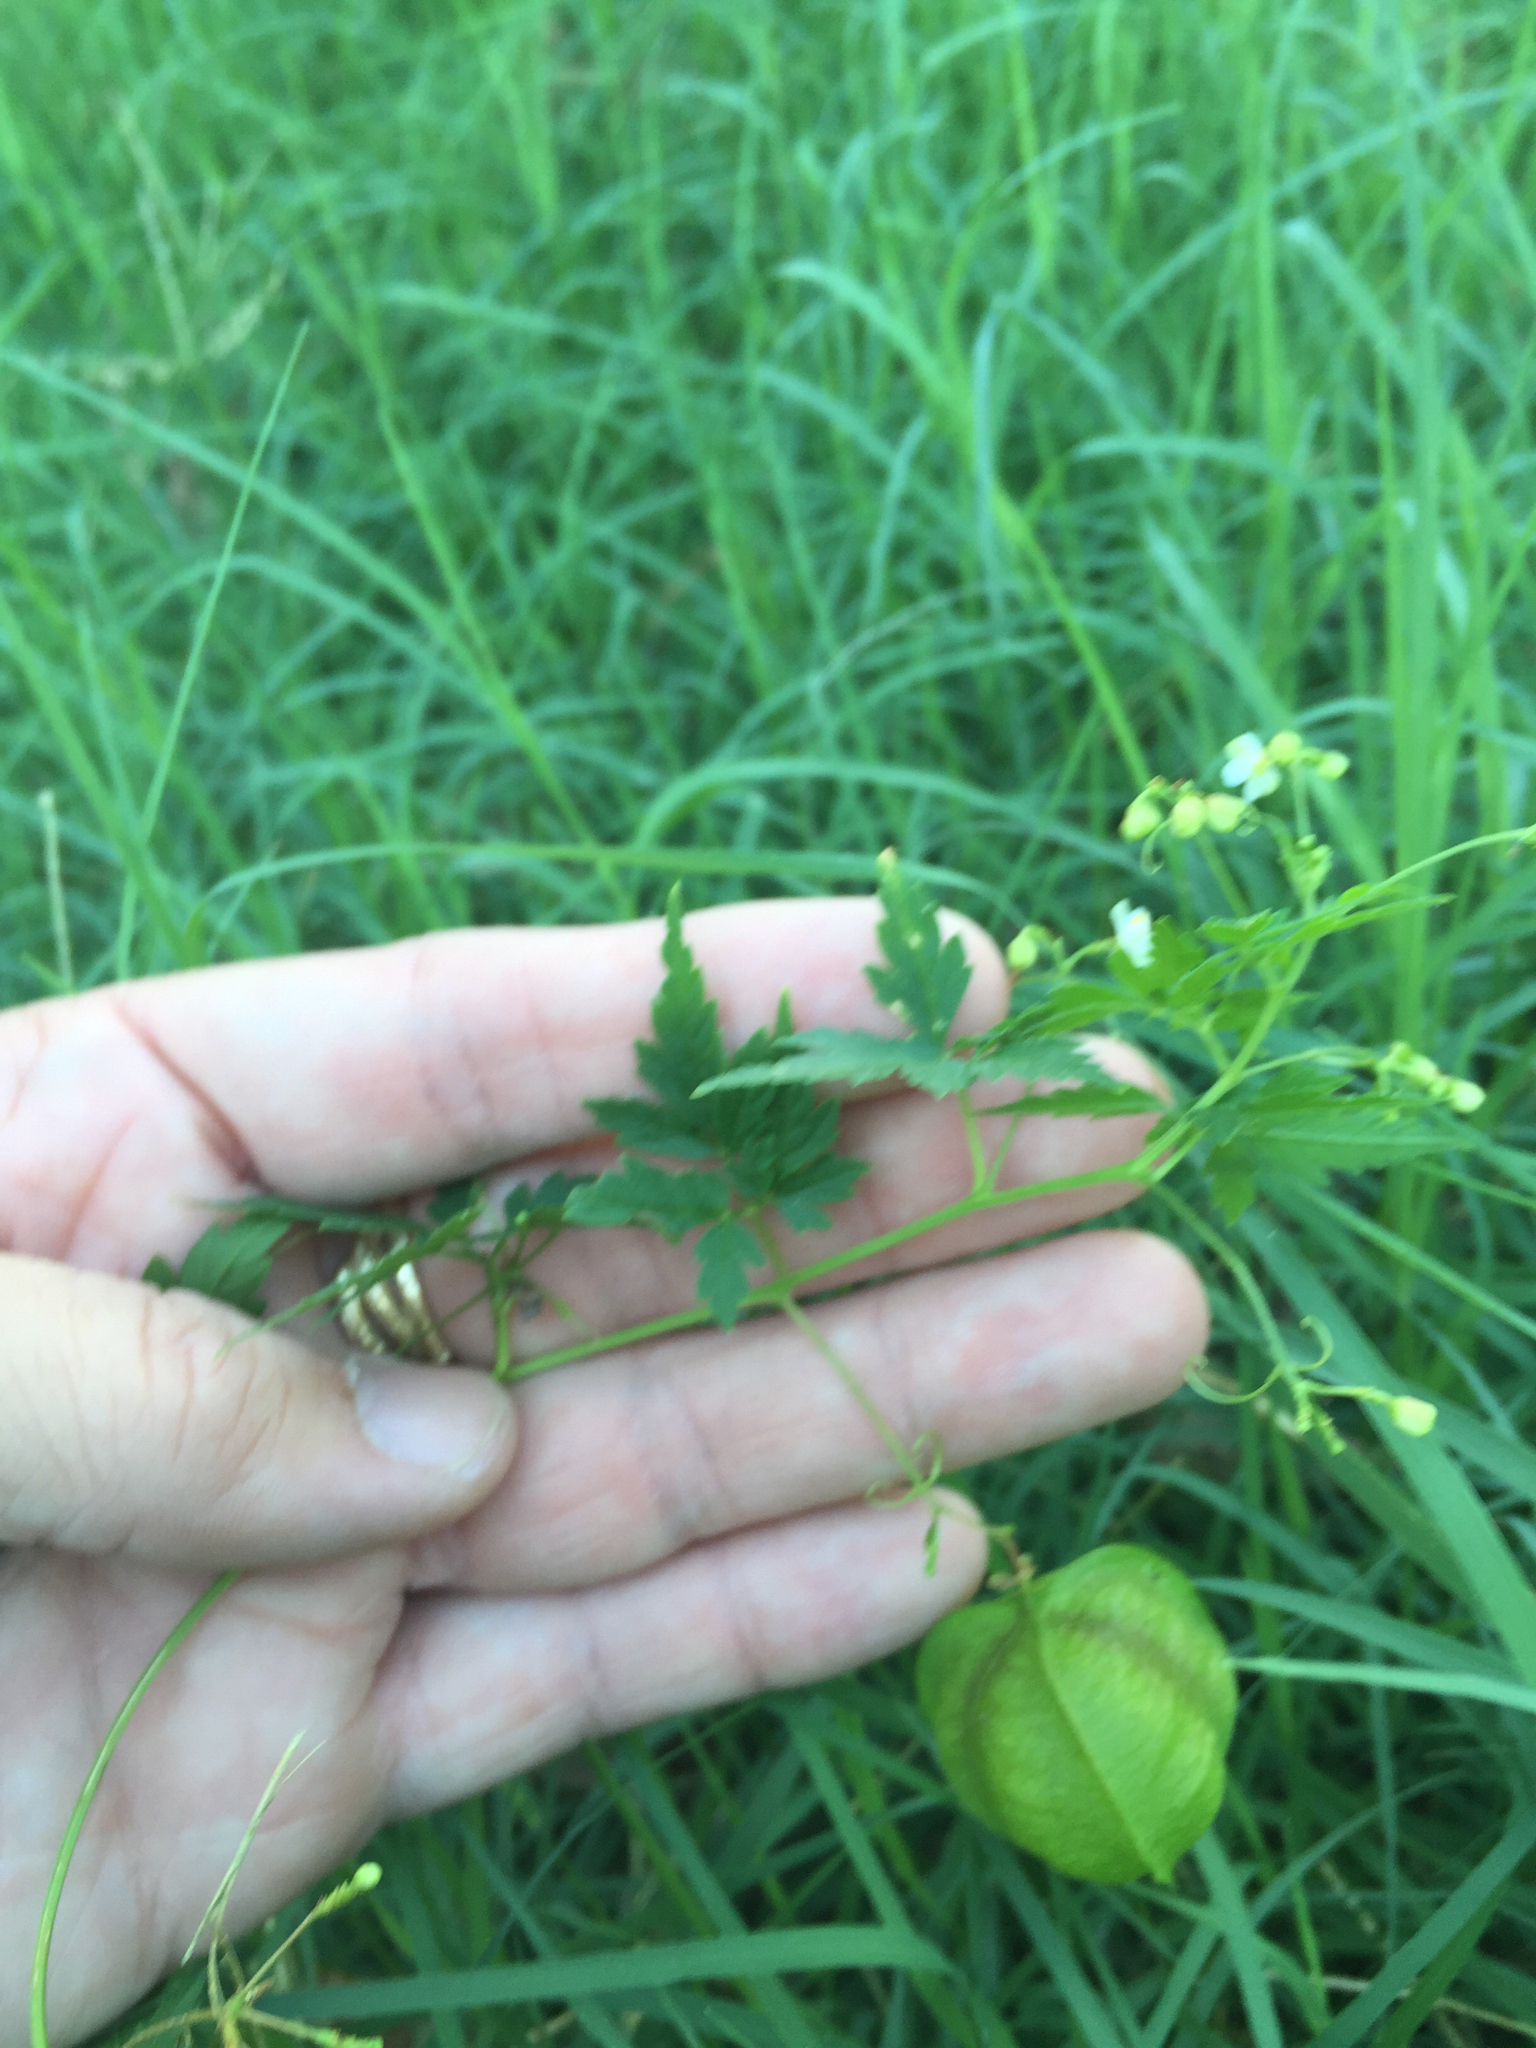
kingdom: Plantae
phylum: Tracheophyta
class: Magnoliopsida
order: Sapindales
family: Sapindaceae
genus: Cardiospermum
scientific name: Cardiospermum halicacabum
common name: Balloon vine
